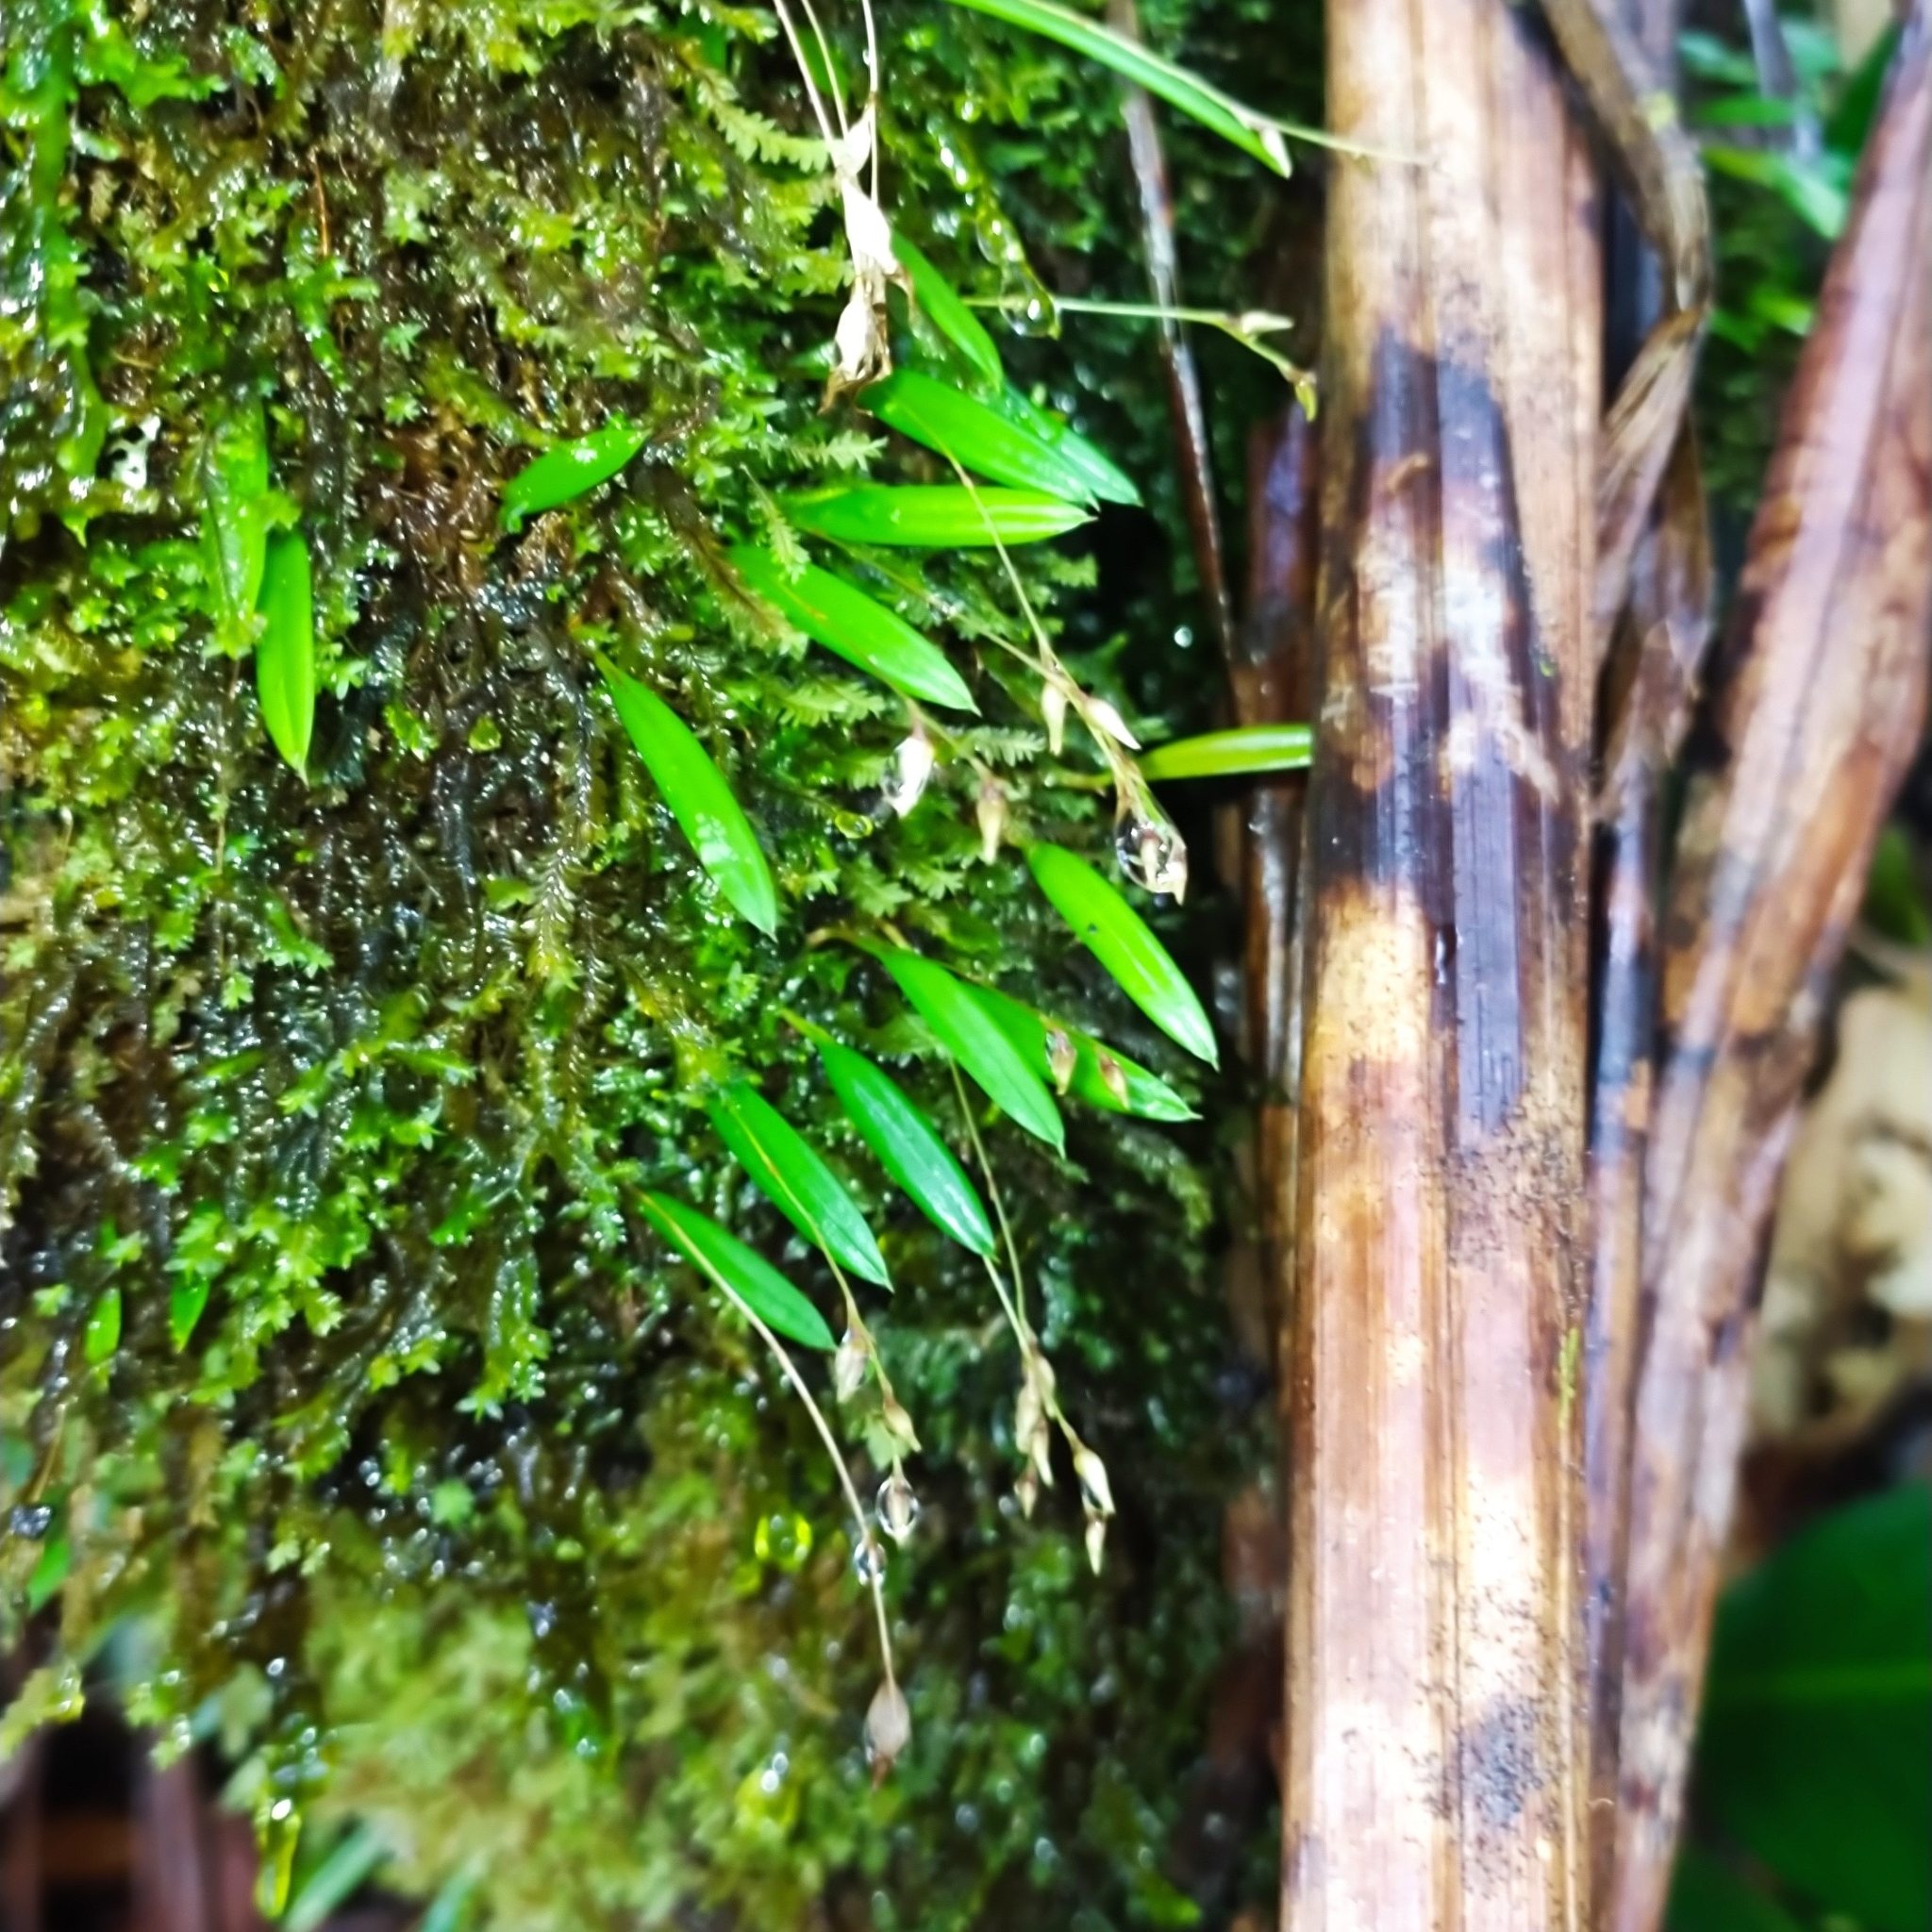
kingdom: Plantae
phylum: Tracheophyta
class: Liliopsida
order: Asparagales
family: Orchidaceae
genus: Madisonia
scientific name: Madisonia spiculifera
